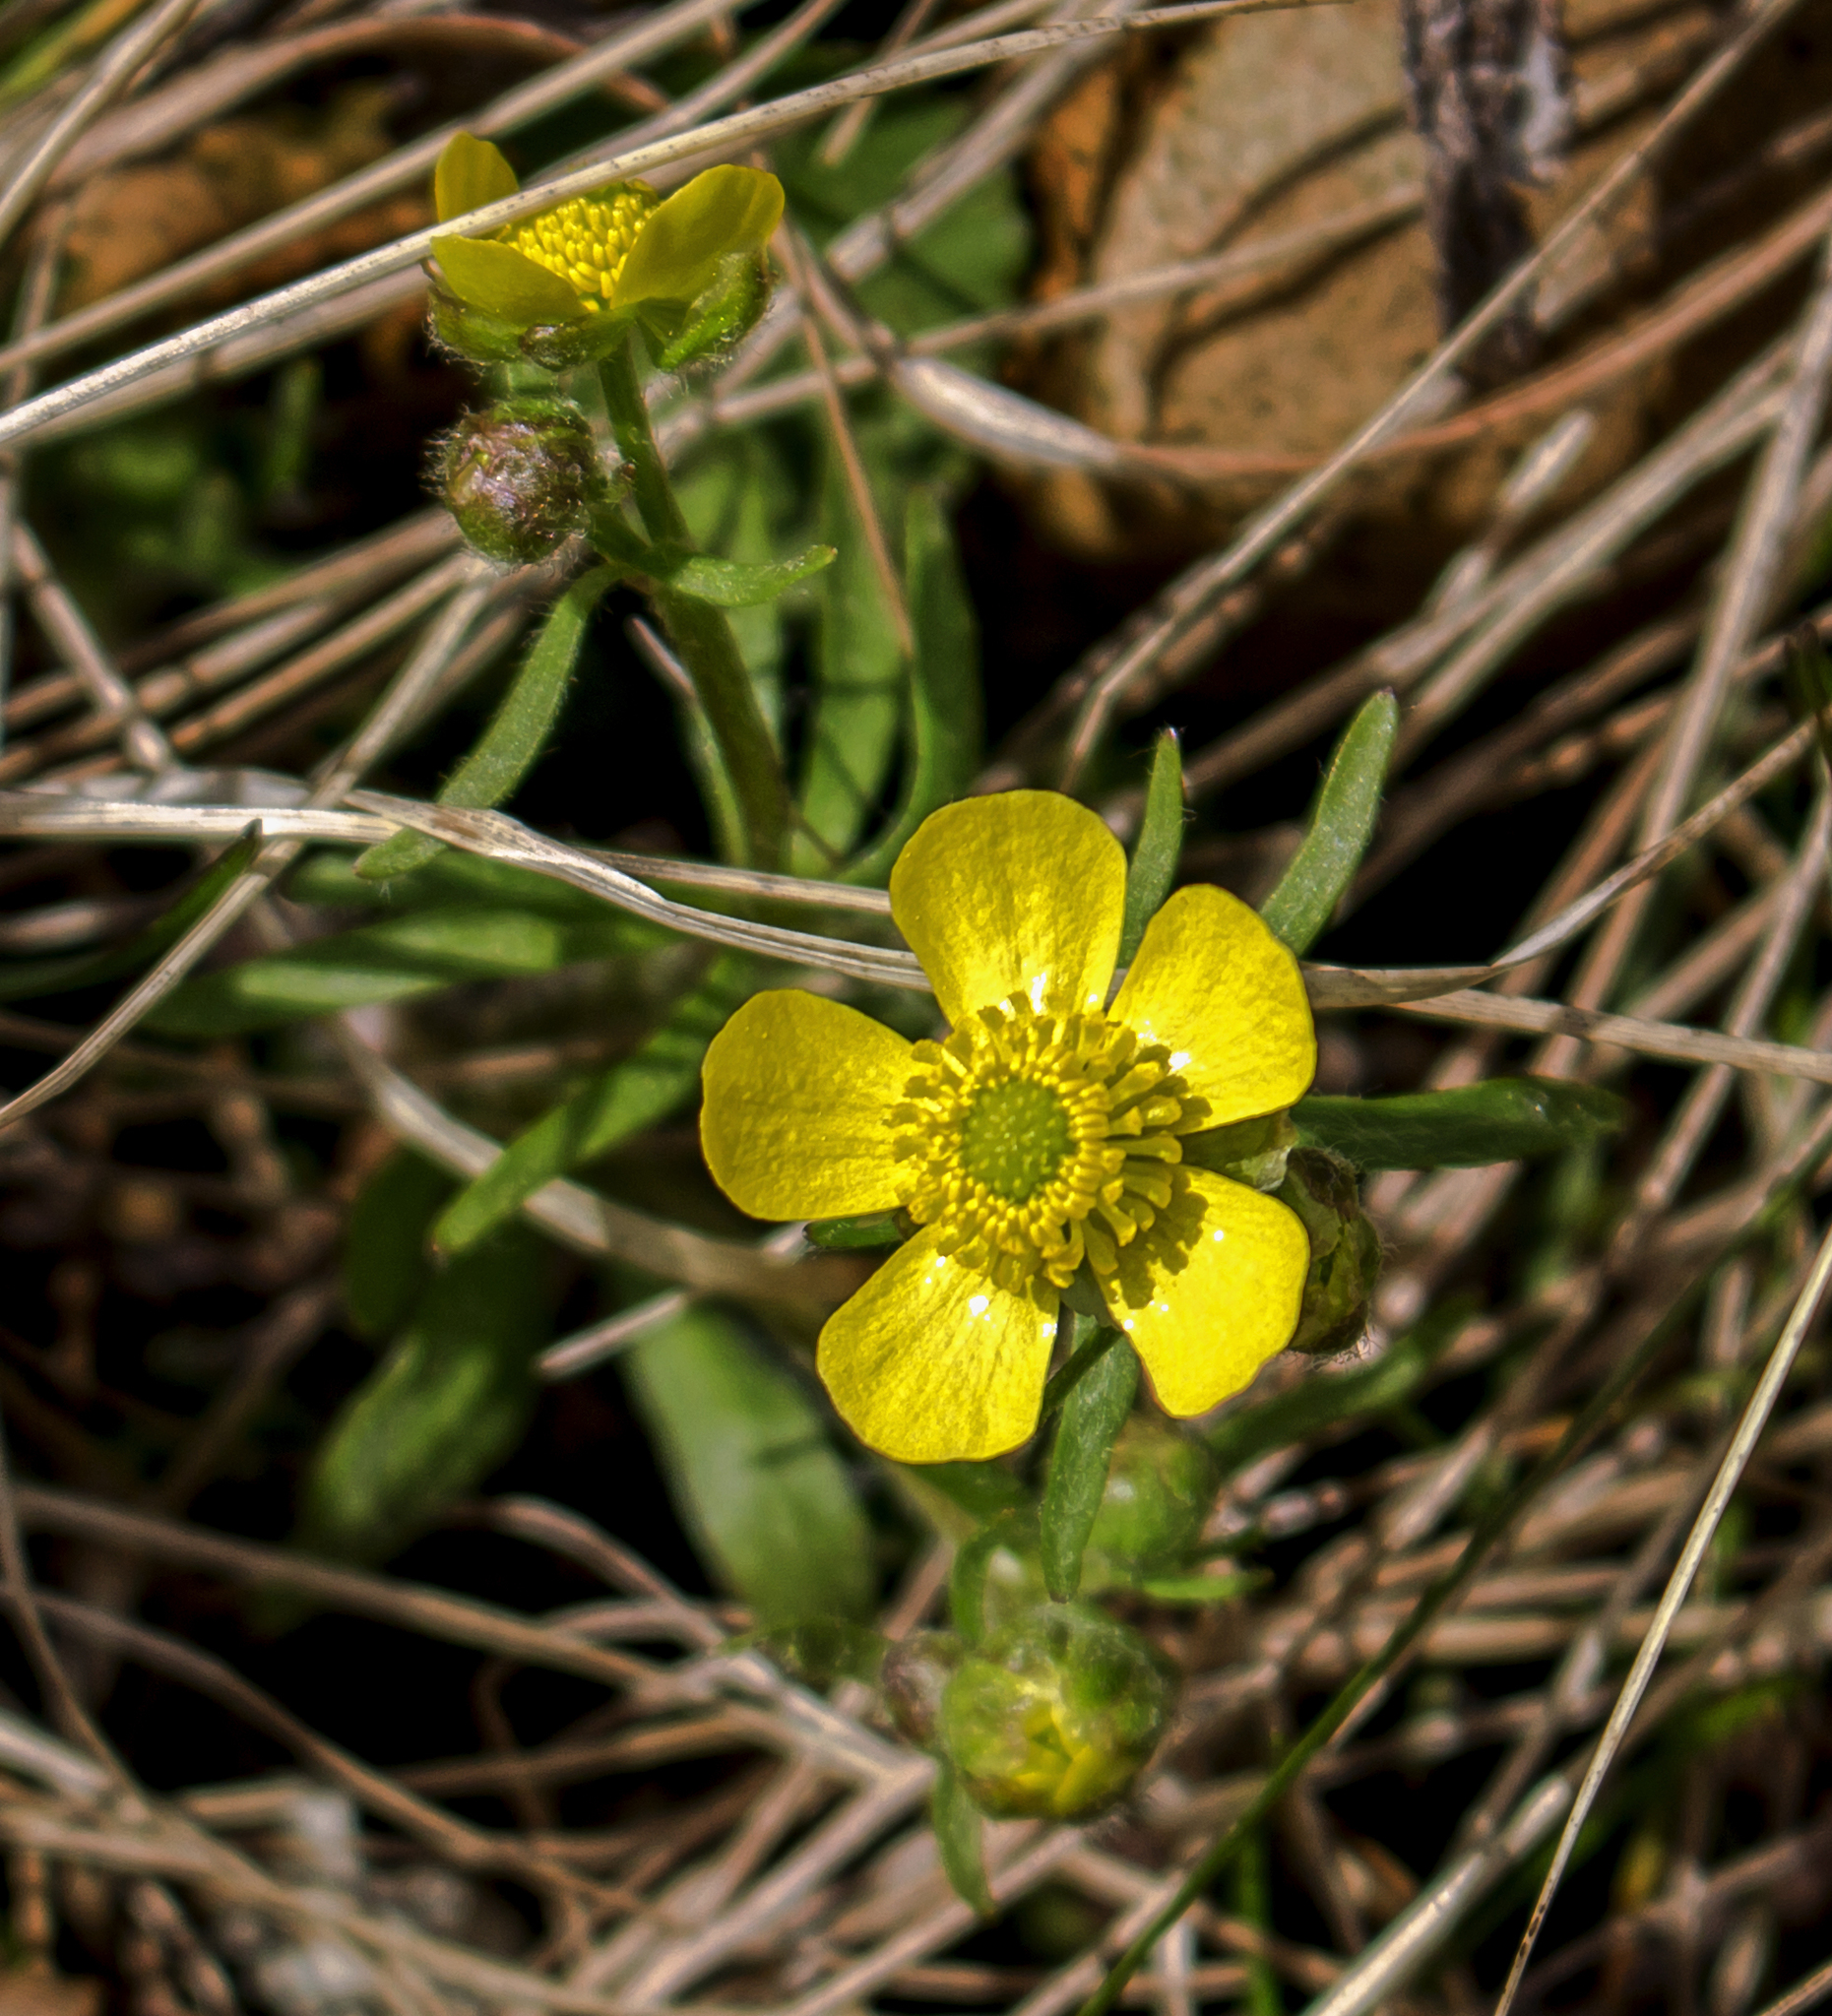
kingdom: Plantae
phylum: Tracheophyta
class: Magnoliopsida
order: Ranunculales
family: Ranunculaceae
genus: Ranunculus
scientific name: Ranunculus rhomboideus
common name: Prairie buttercup
